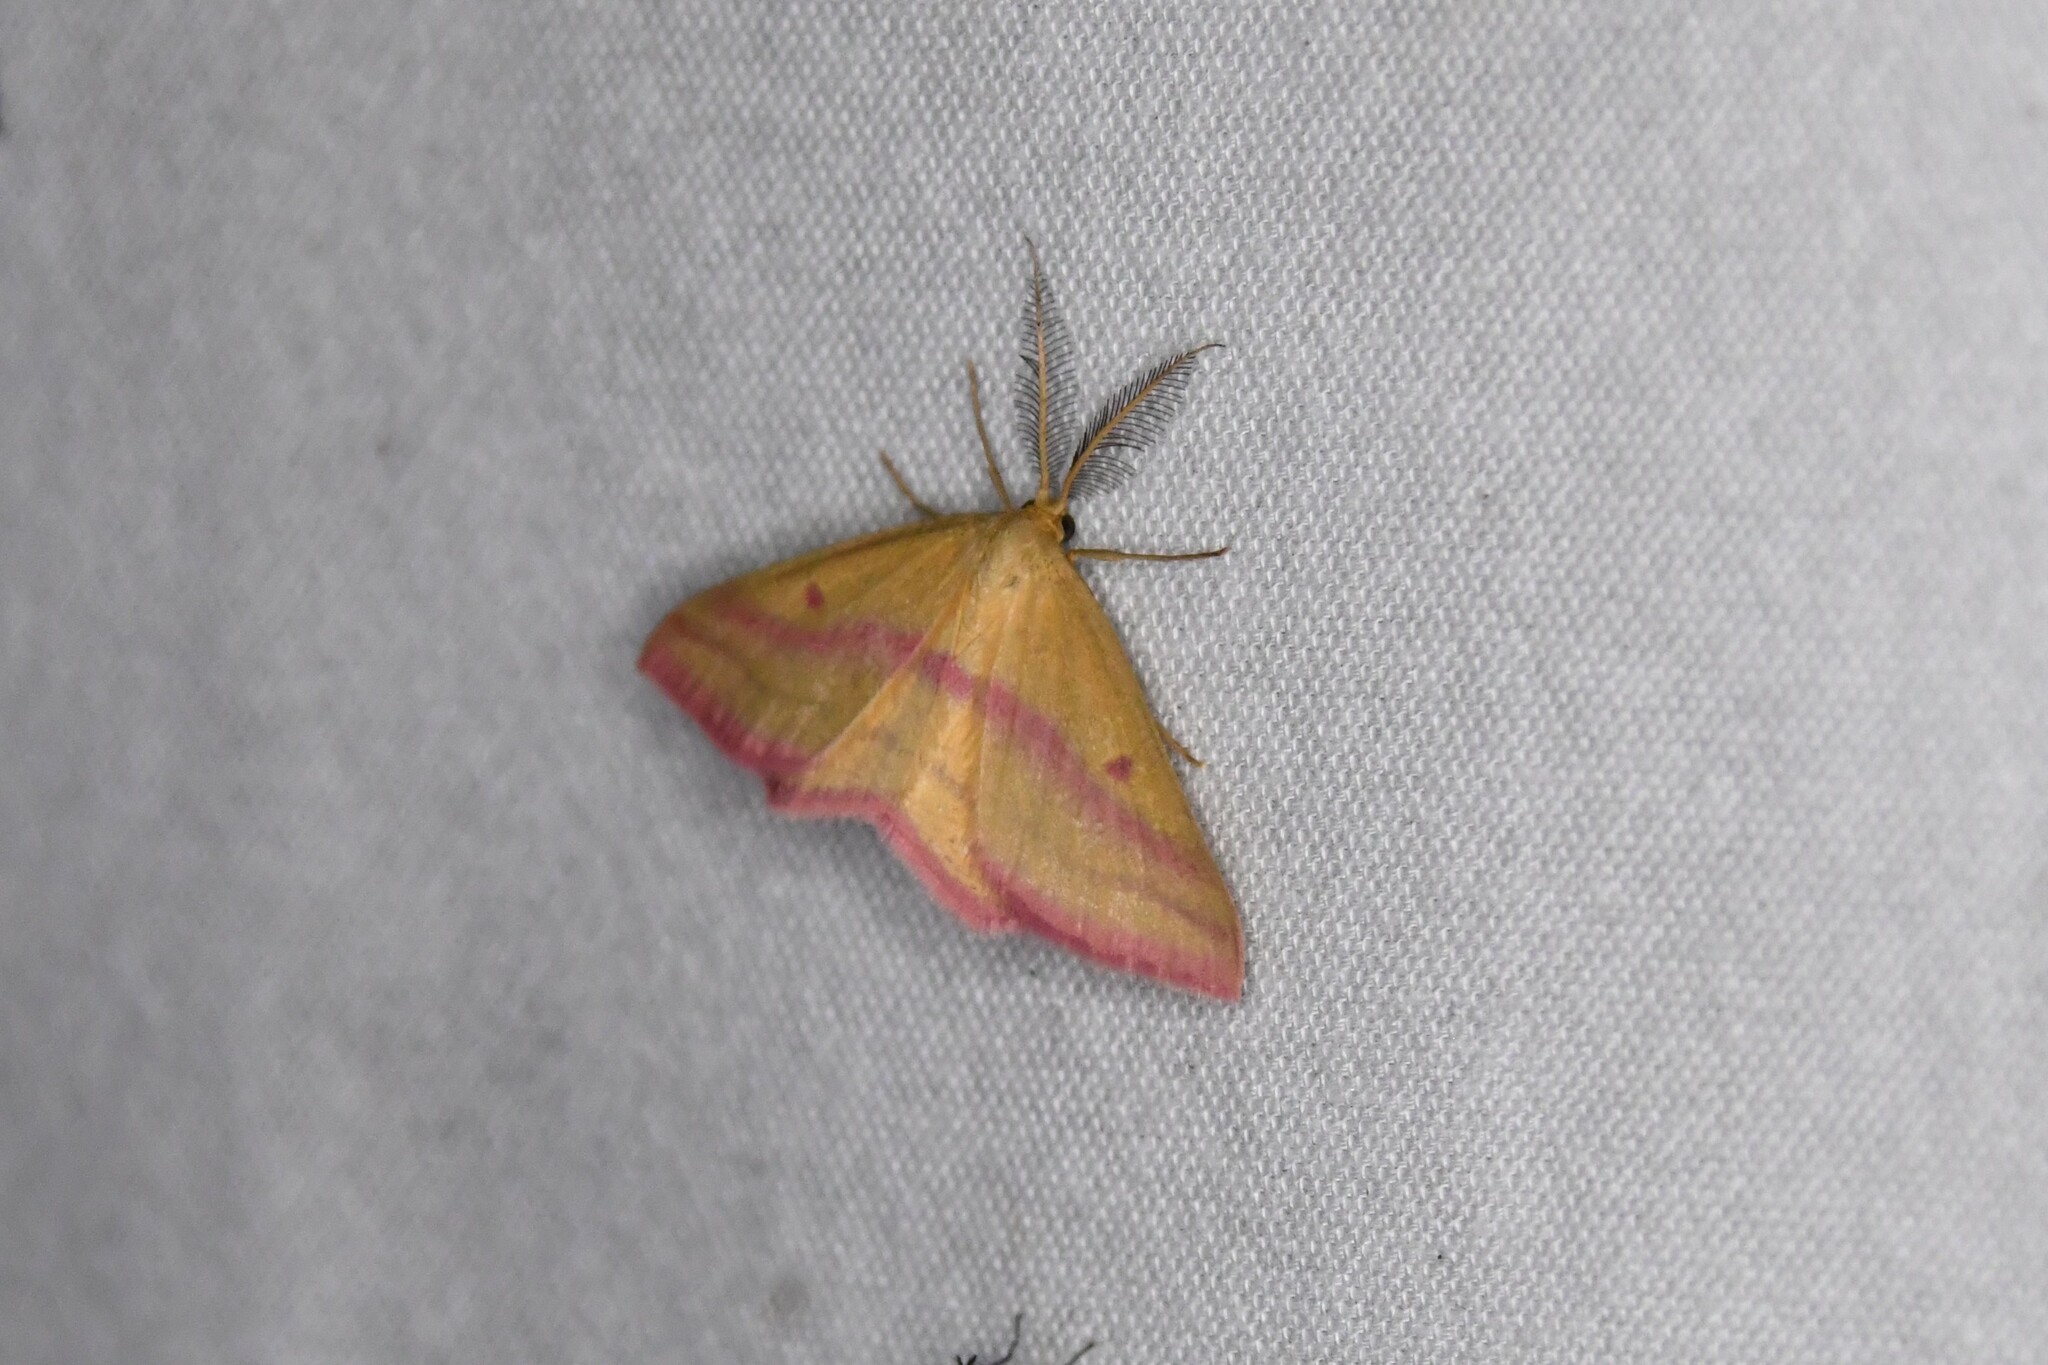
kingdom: Animalia
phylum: Arthropoda
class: Insecta
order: Lepidoptera
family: Geometridae
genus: Haematopis
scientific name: Haematopis grataria
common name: Chickweed geometer
